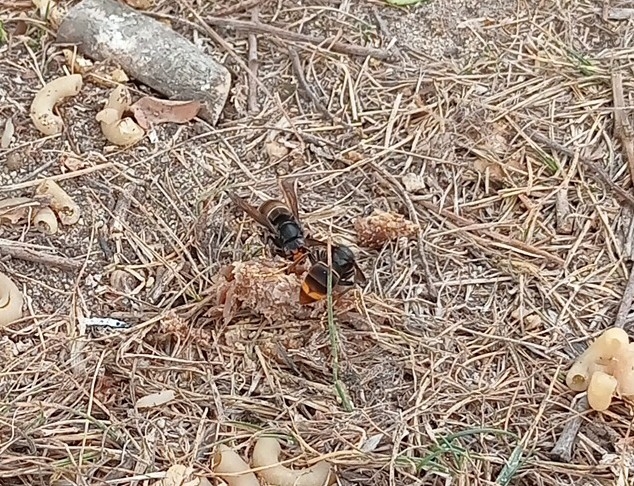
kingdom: Animalia
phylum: Arthropoda
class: Insecta
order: Hymenoptera
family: Vespidae
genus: Vespa
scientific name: Vespa velutina
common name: Asian hornet
